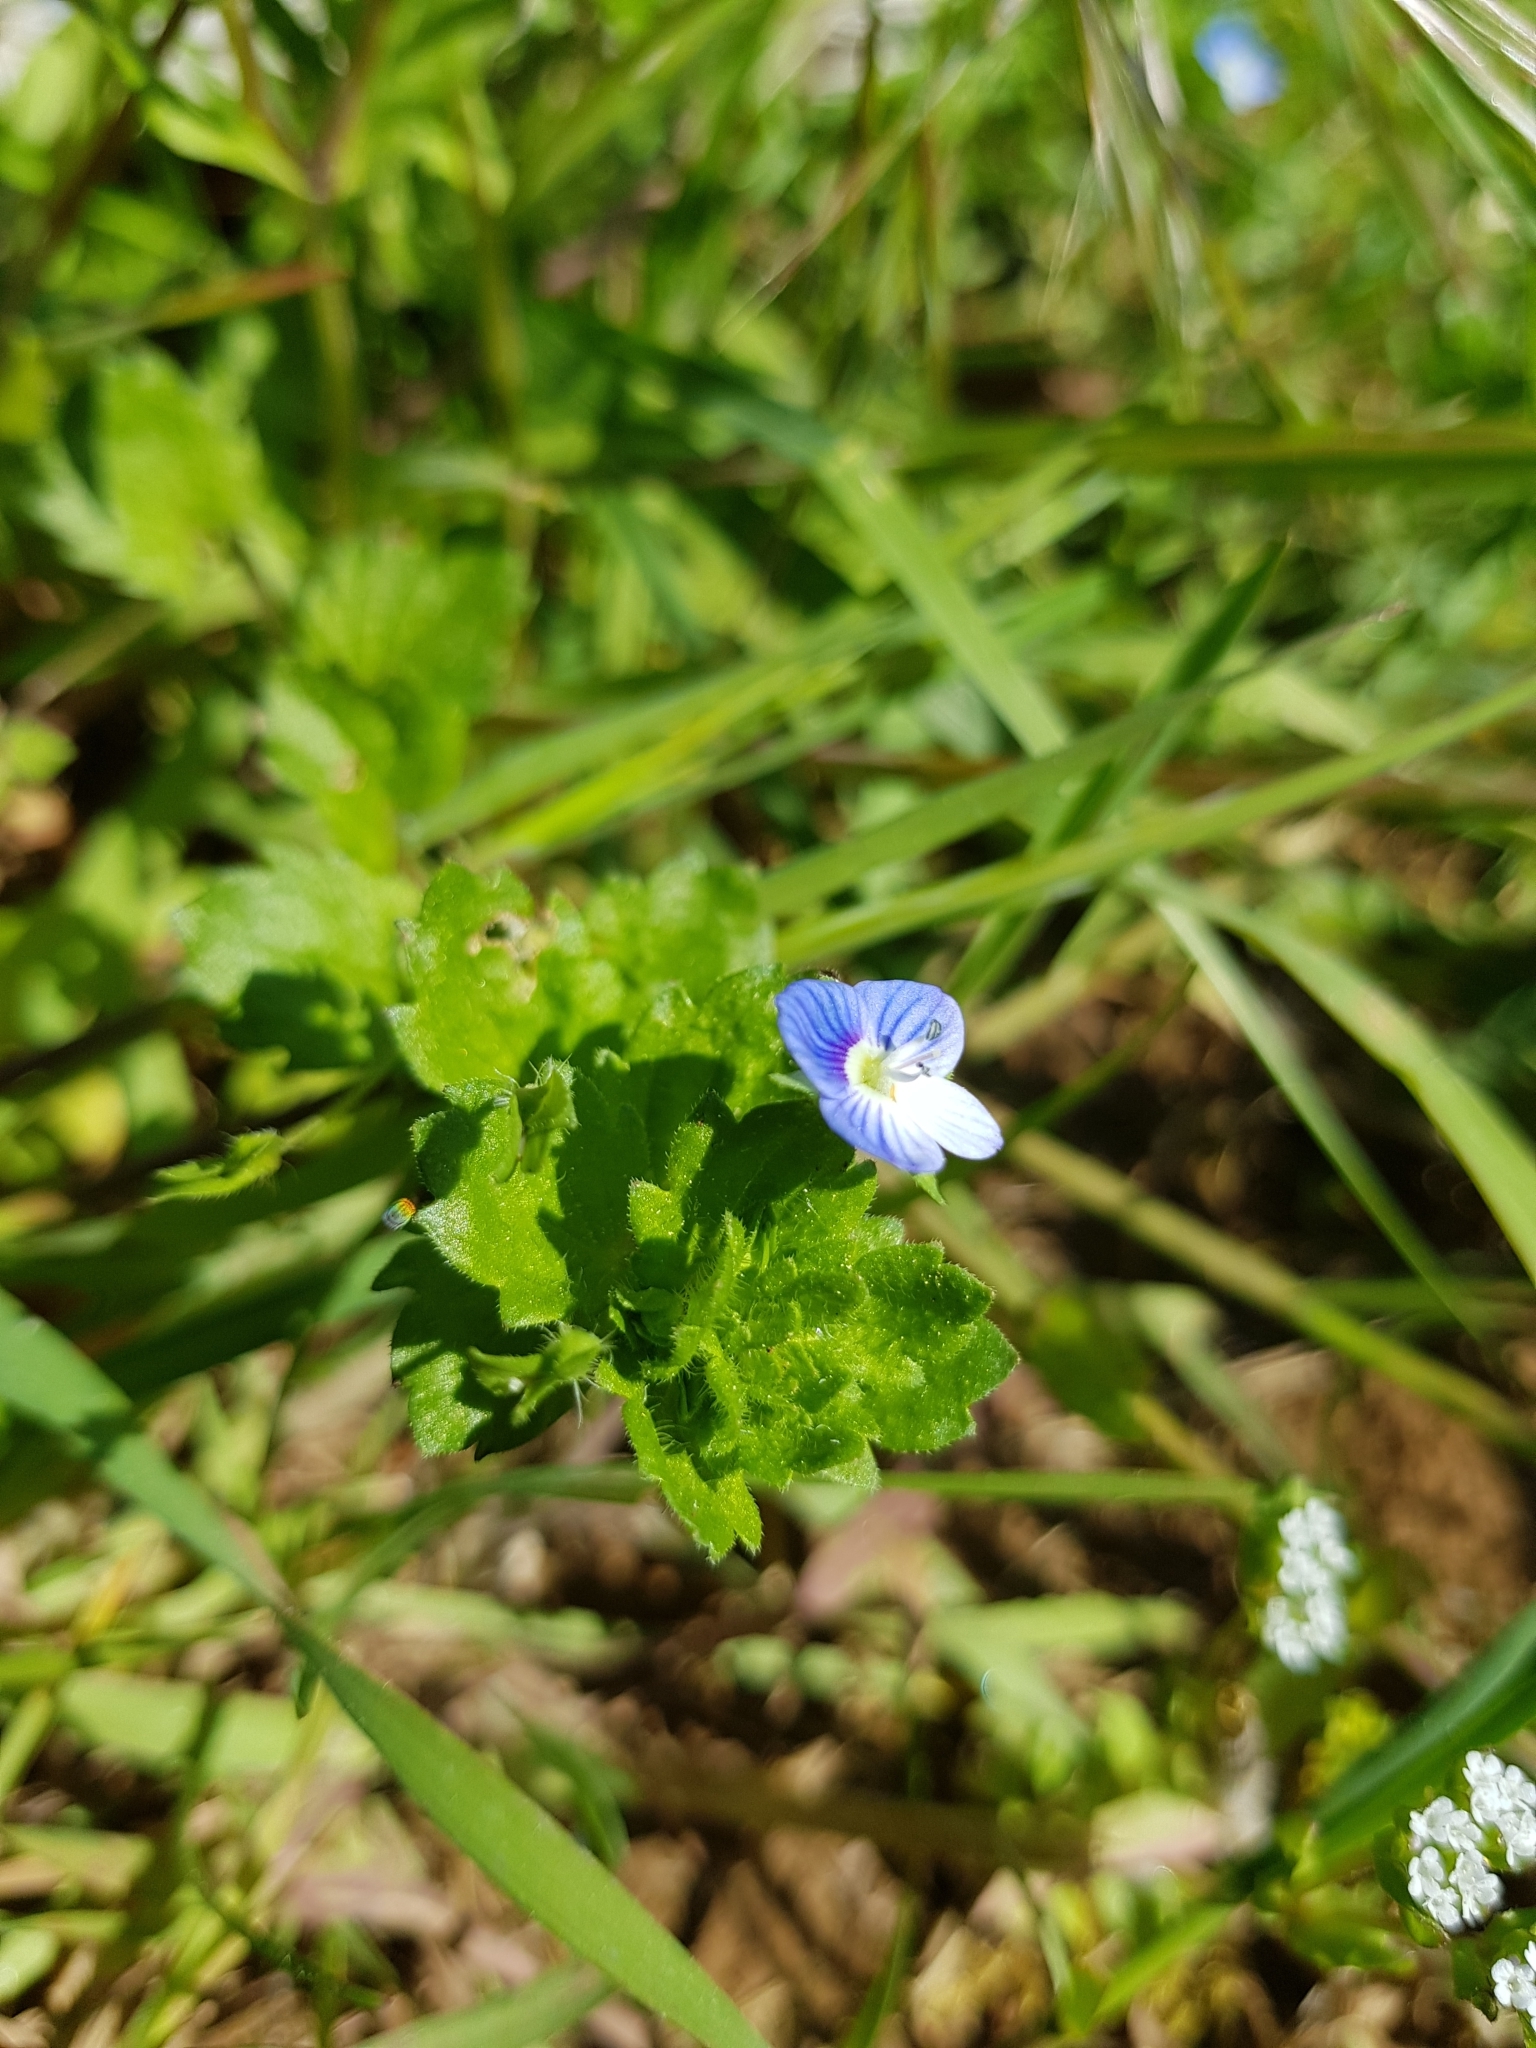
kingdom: Plantae
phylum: Tracheophyta
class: Magnoliopsida
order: Lamiales
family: Plantaginaceae
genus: Veronica
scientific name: Veronica persica
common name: Common field-speedwell
